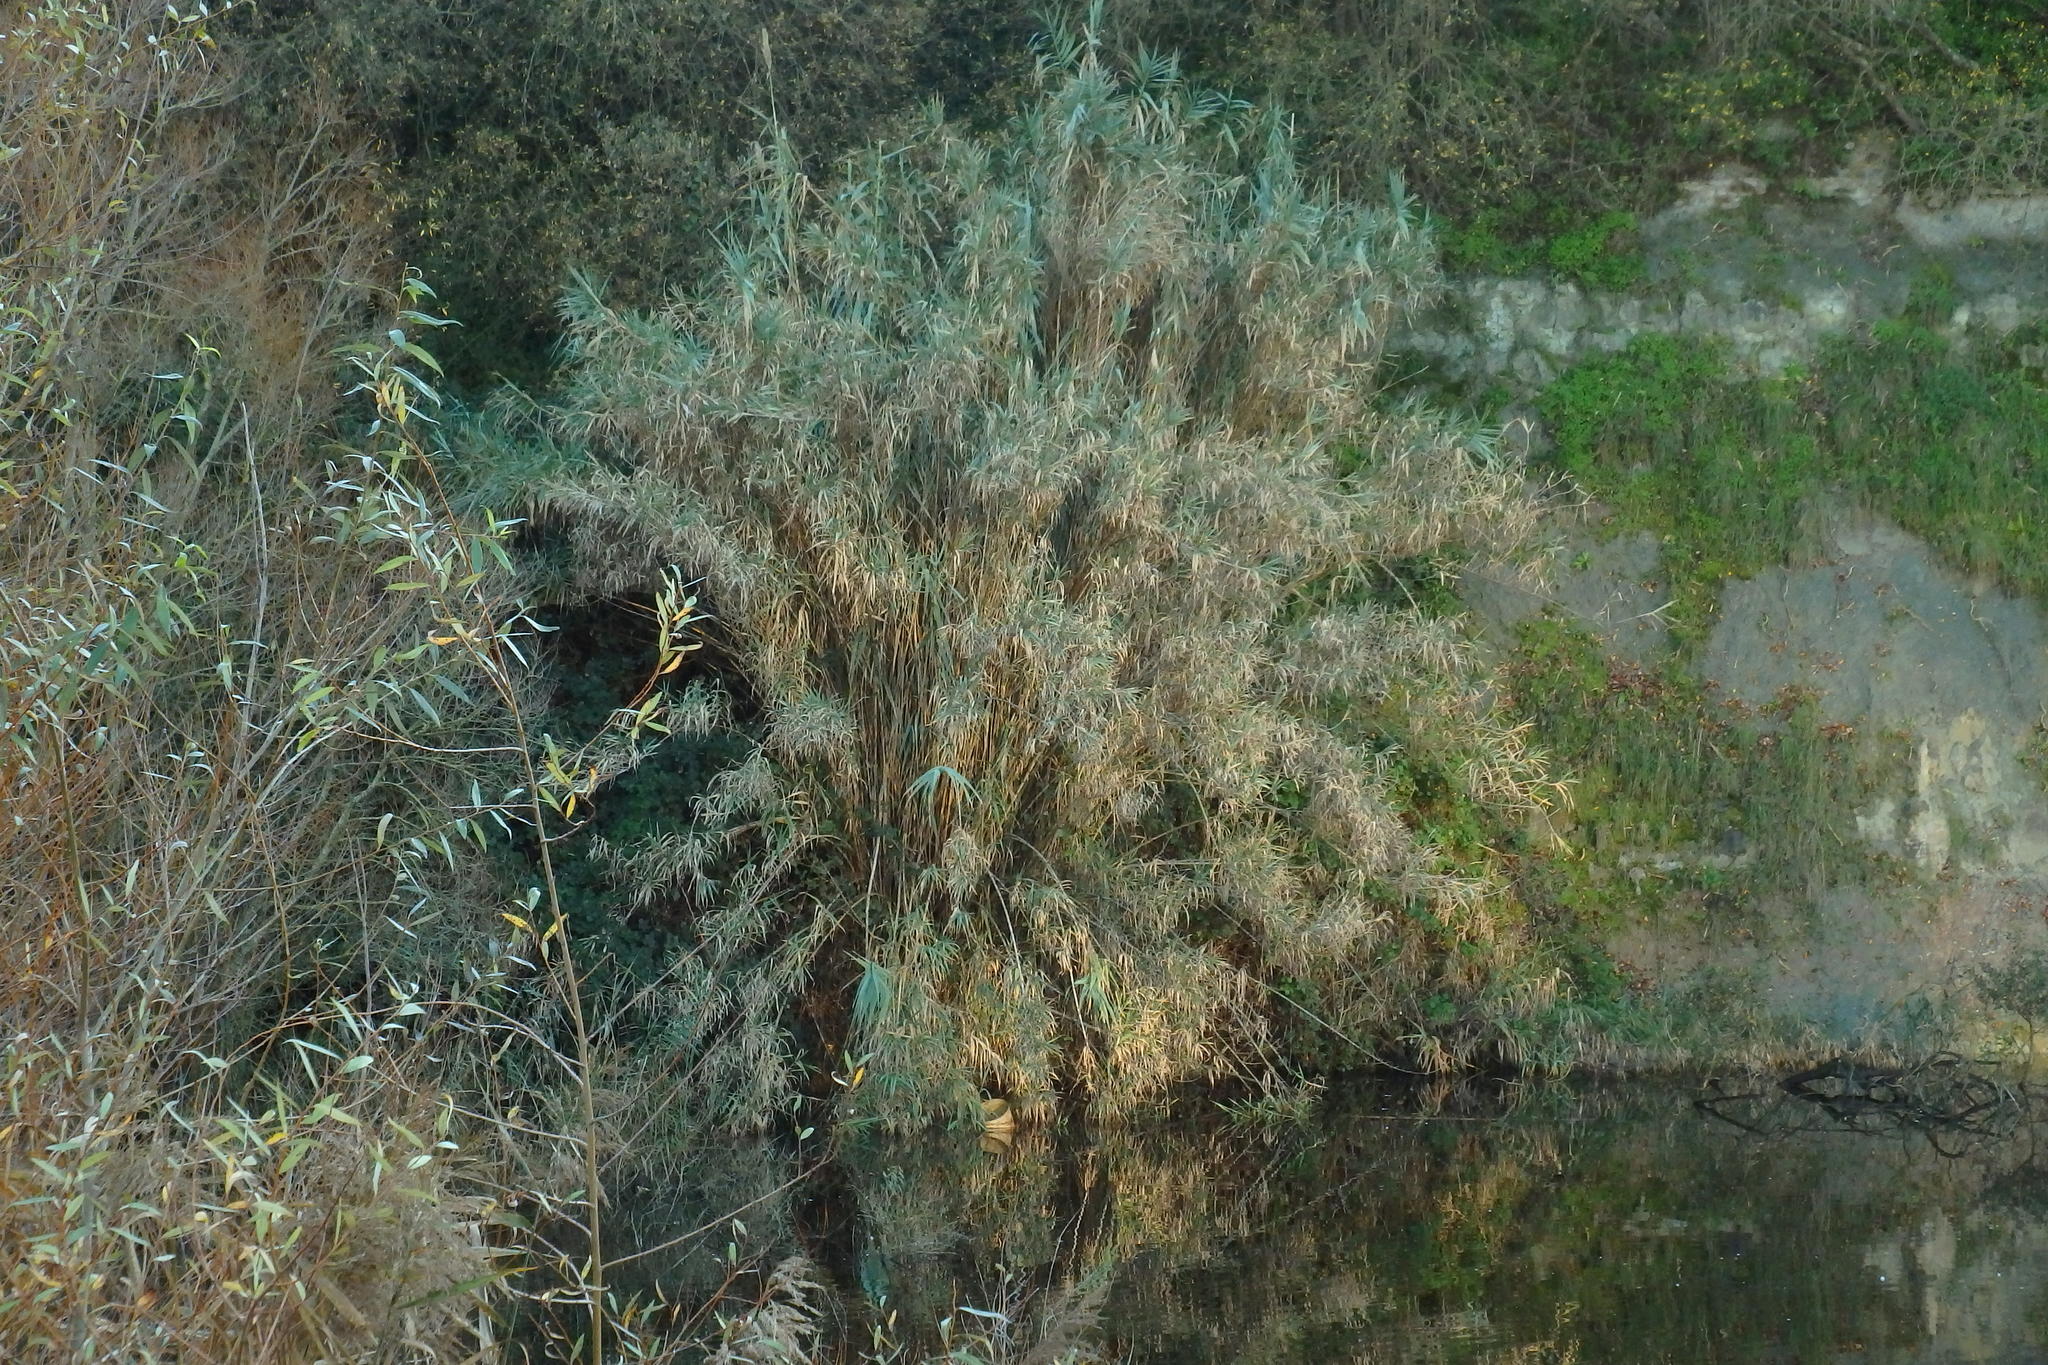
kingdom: Plantae
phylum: Tracheophyta
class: Liliopsida
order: Poales
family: Poaceae
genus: Arundo
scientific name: Arundo donax
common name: Giant reed
